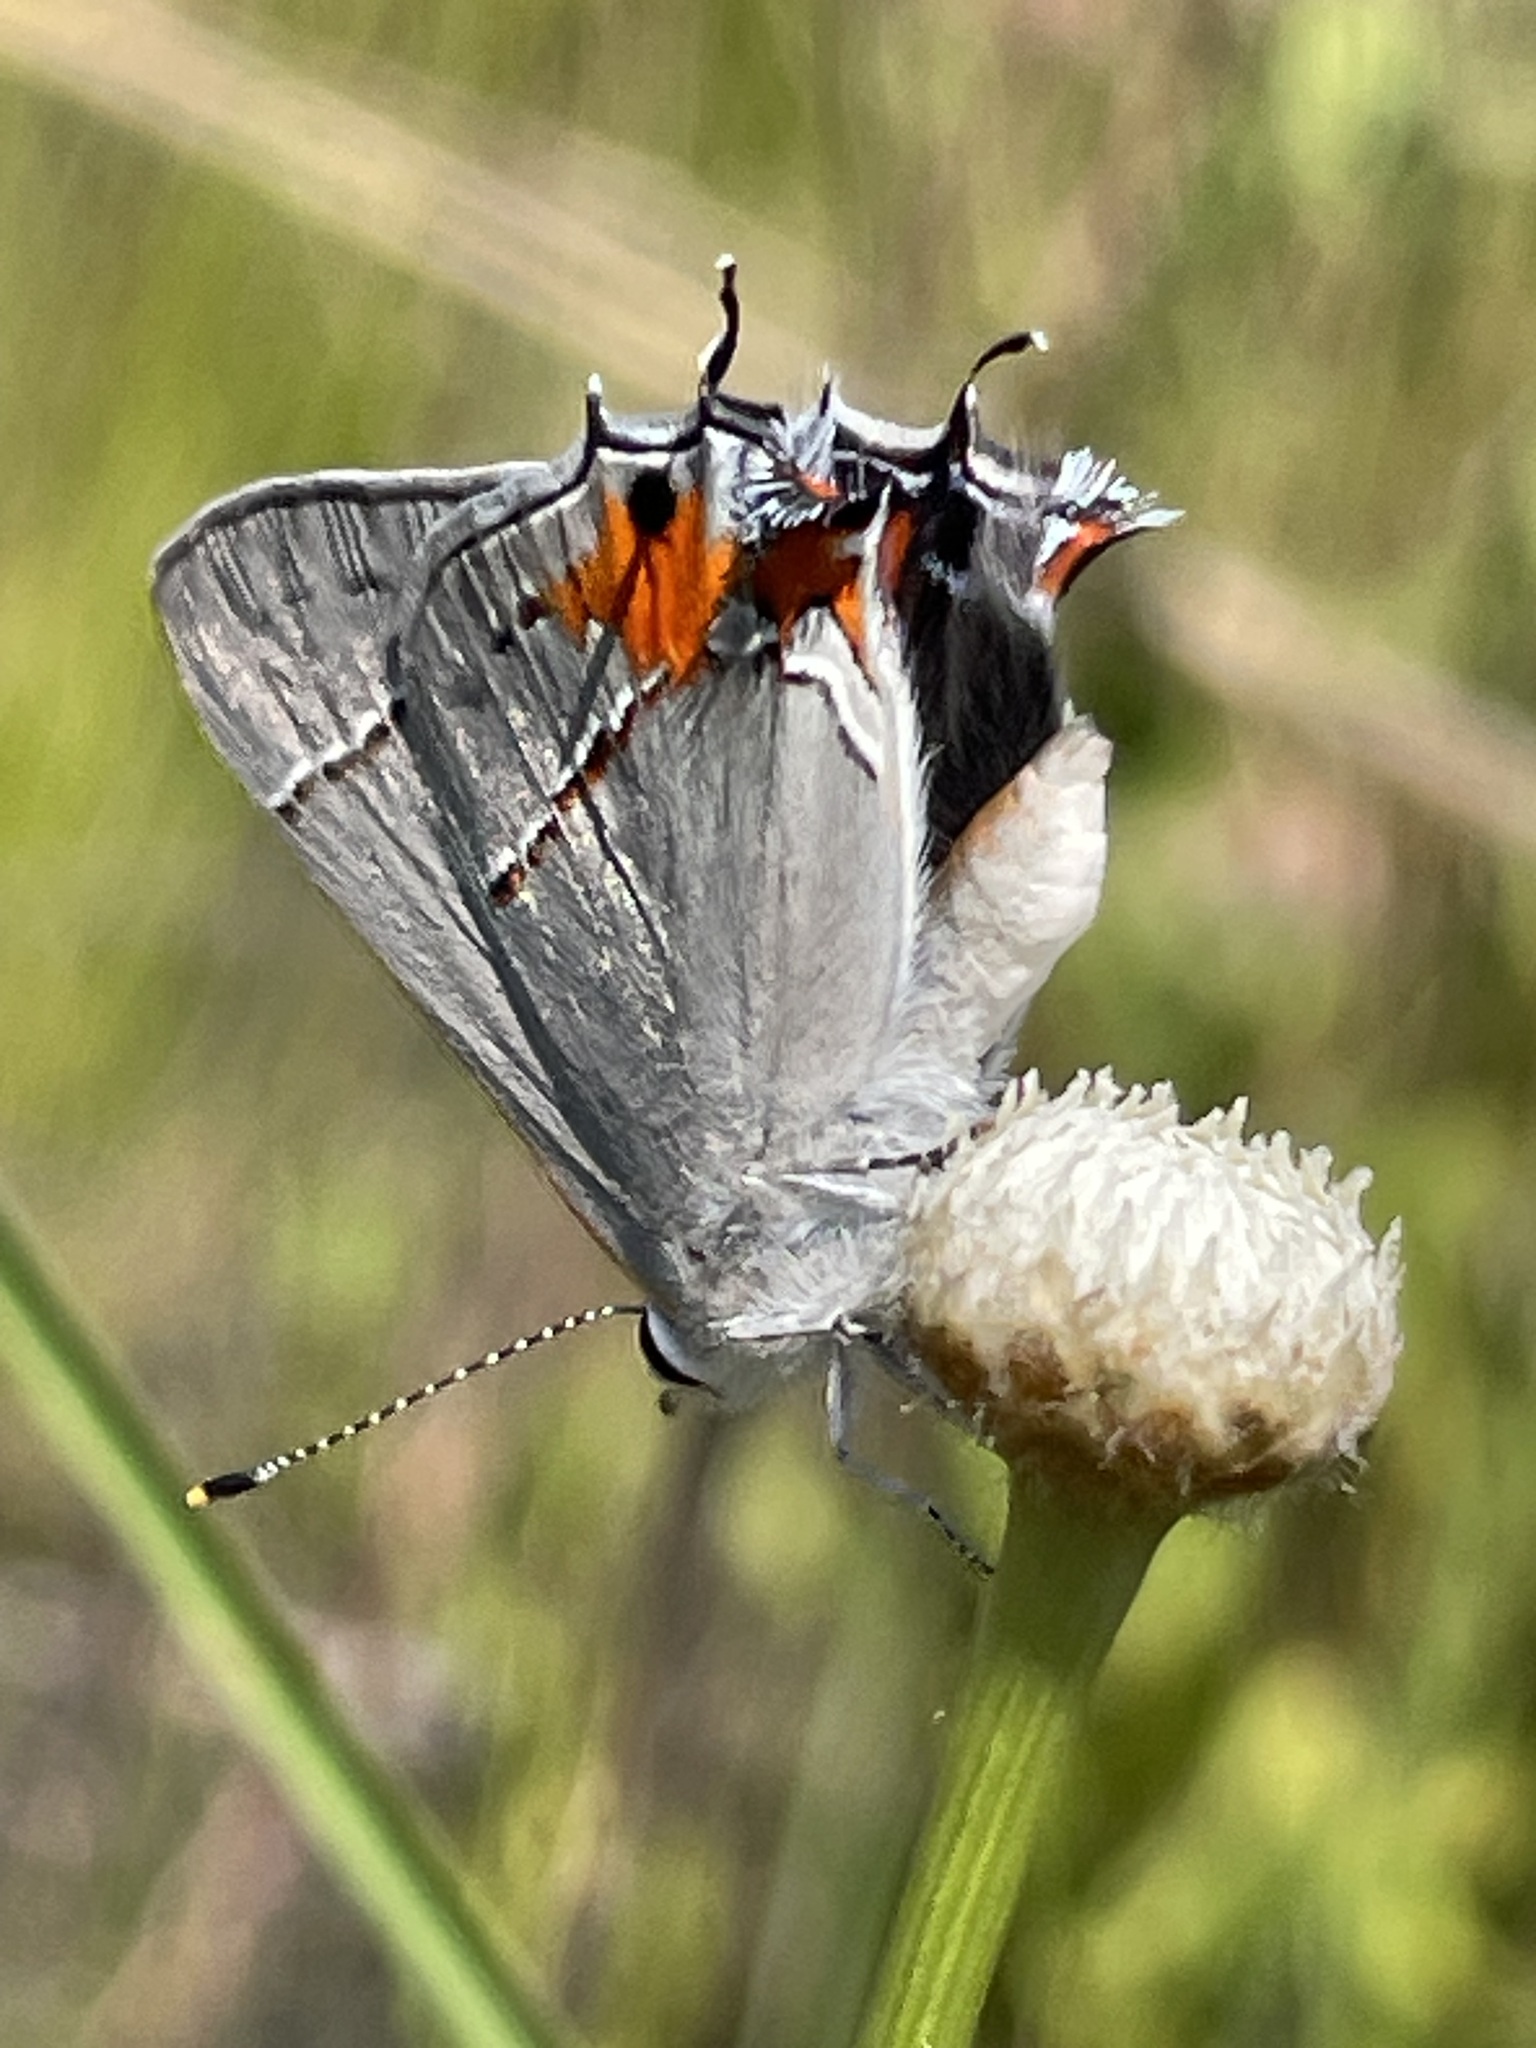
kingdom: Animalia
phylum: Arthropoda
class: Insecta
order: Lepidoptera
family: Lycaenidae
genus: Strymon
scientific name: Strymon melinus
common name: Gray hairstreak
